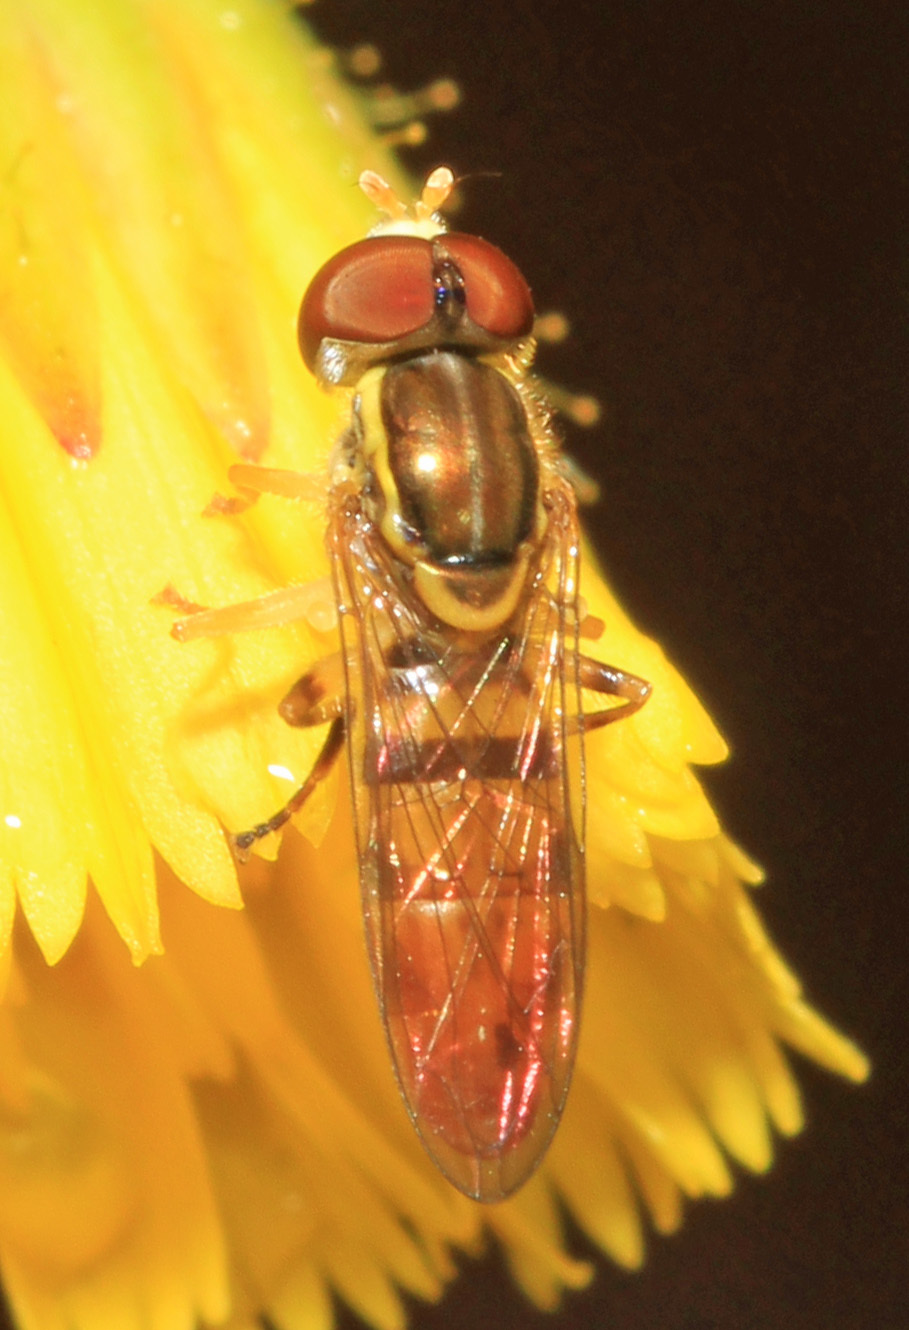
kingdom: Animalia
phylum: Arthropoda
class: Insecta
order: Diptera
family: Syrphidae
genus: Toxomerus
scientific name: Toxomerus floralis
